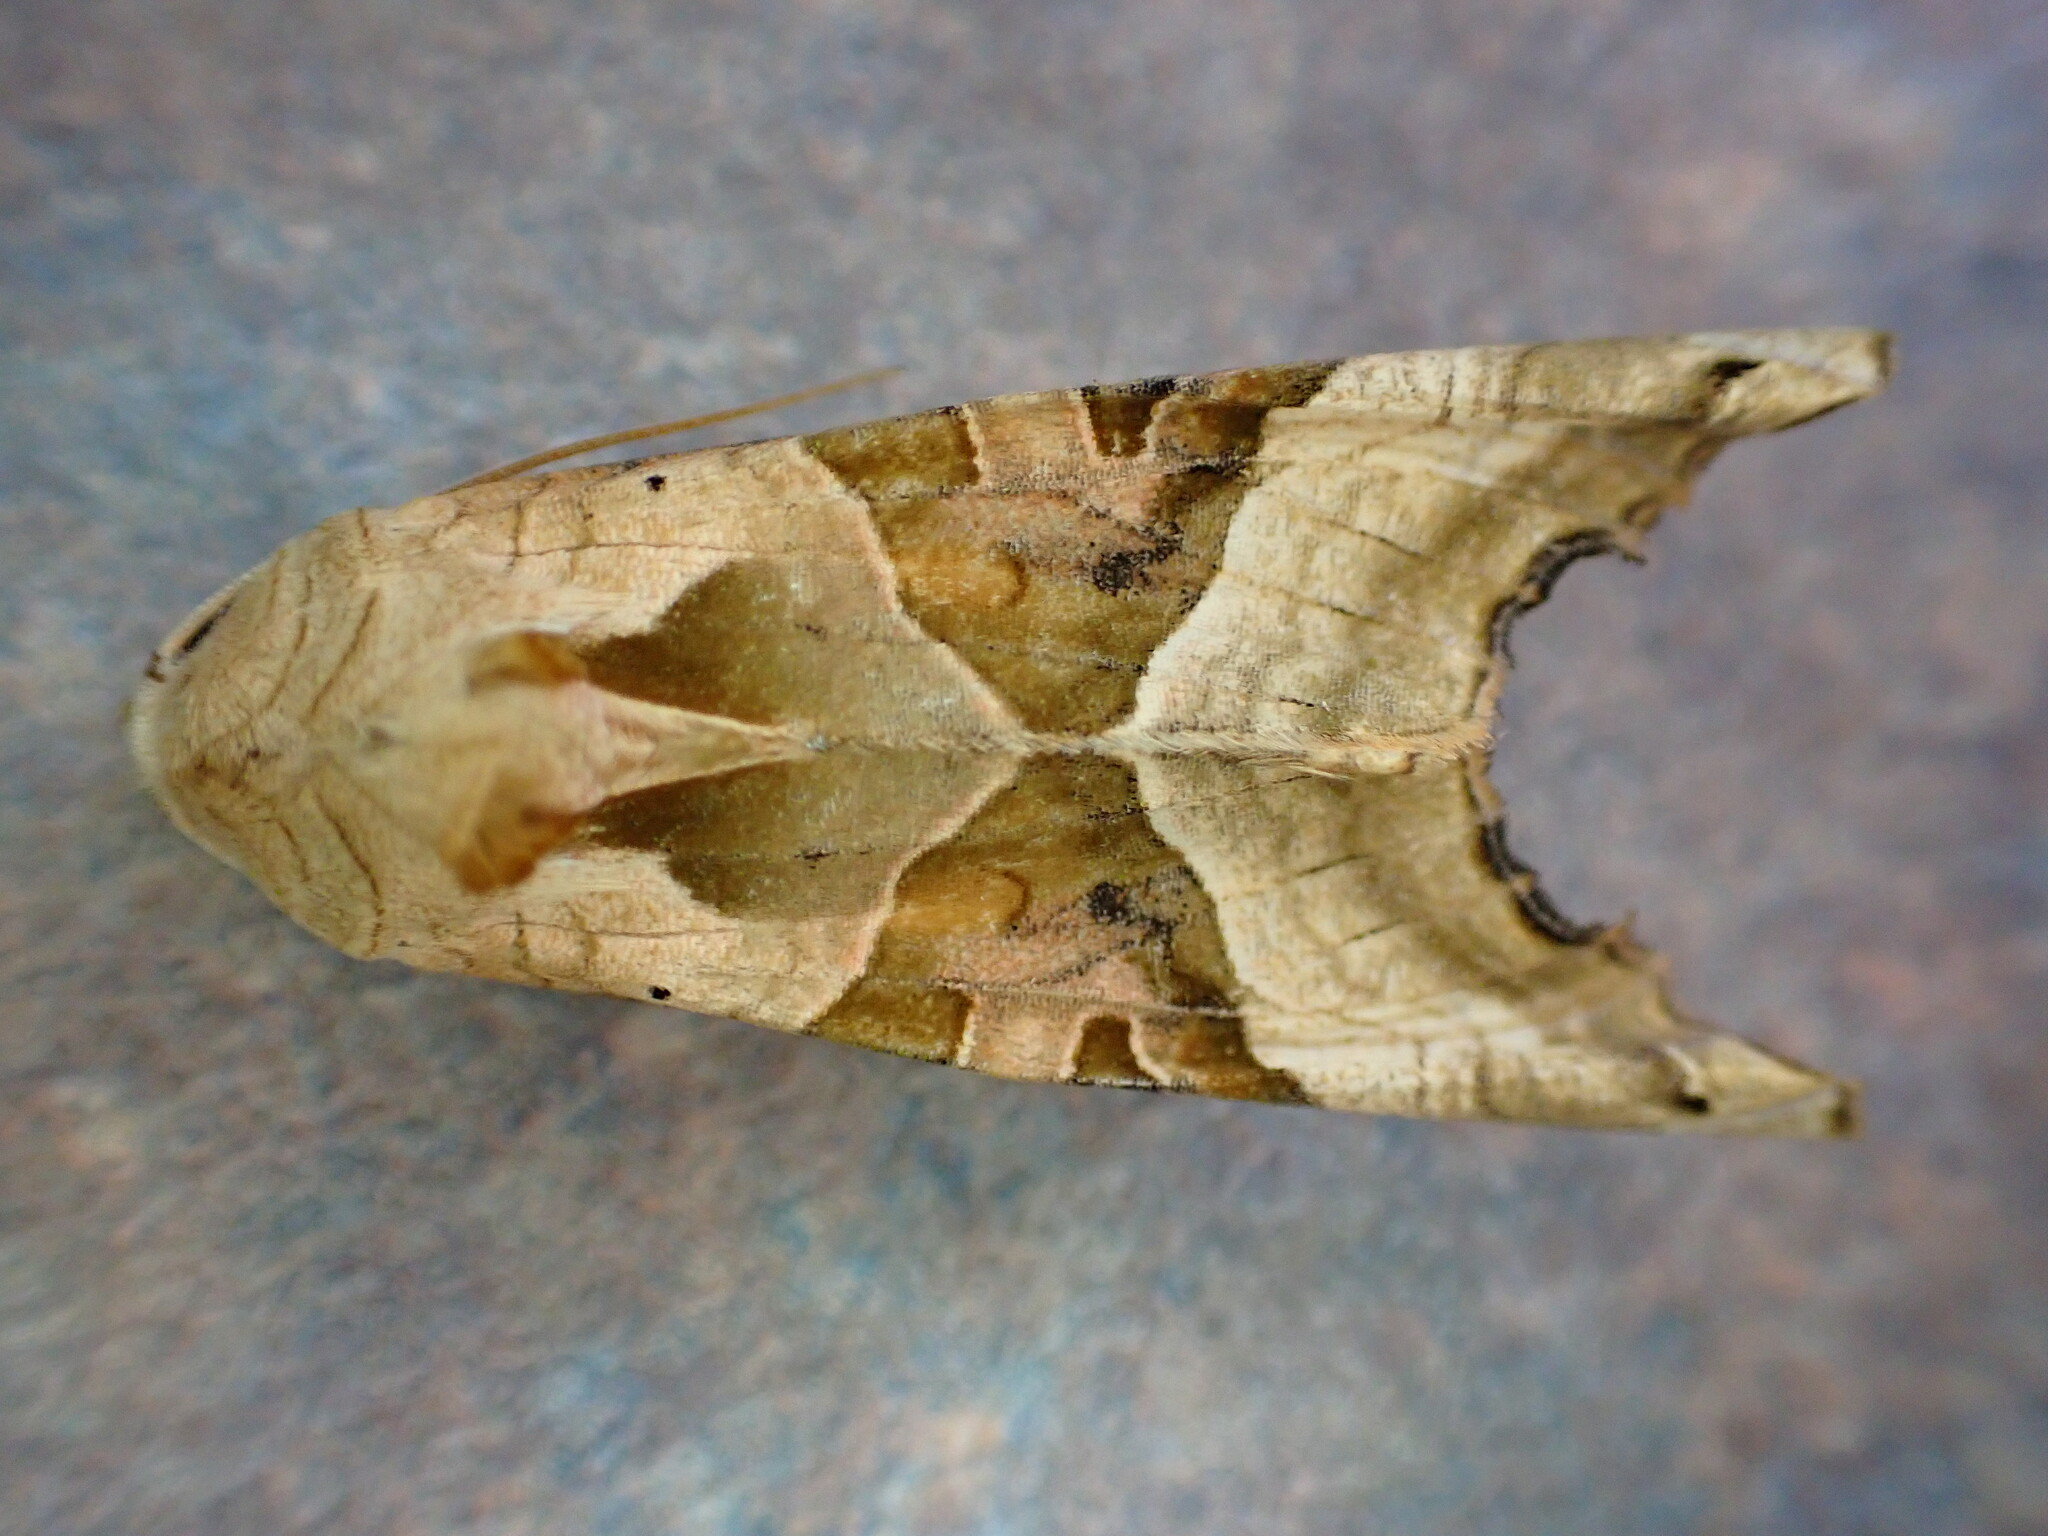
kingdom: Animalia
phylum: Arthropoda
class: Insecta
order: Lepidoptera
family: Noctuidae
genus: Phlogophora
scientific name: Phlogophora meticulosa
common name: Angle shades
